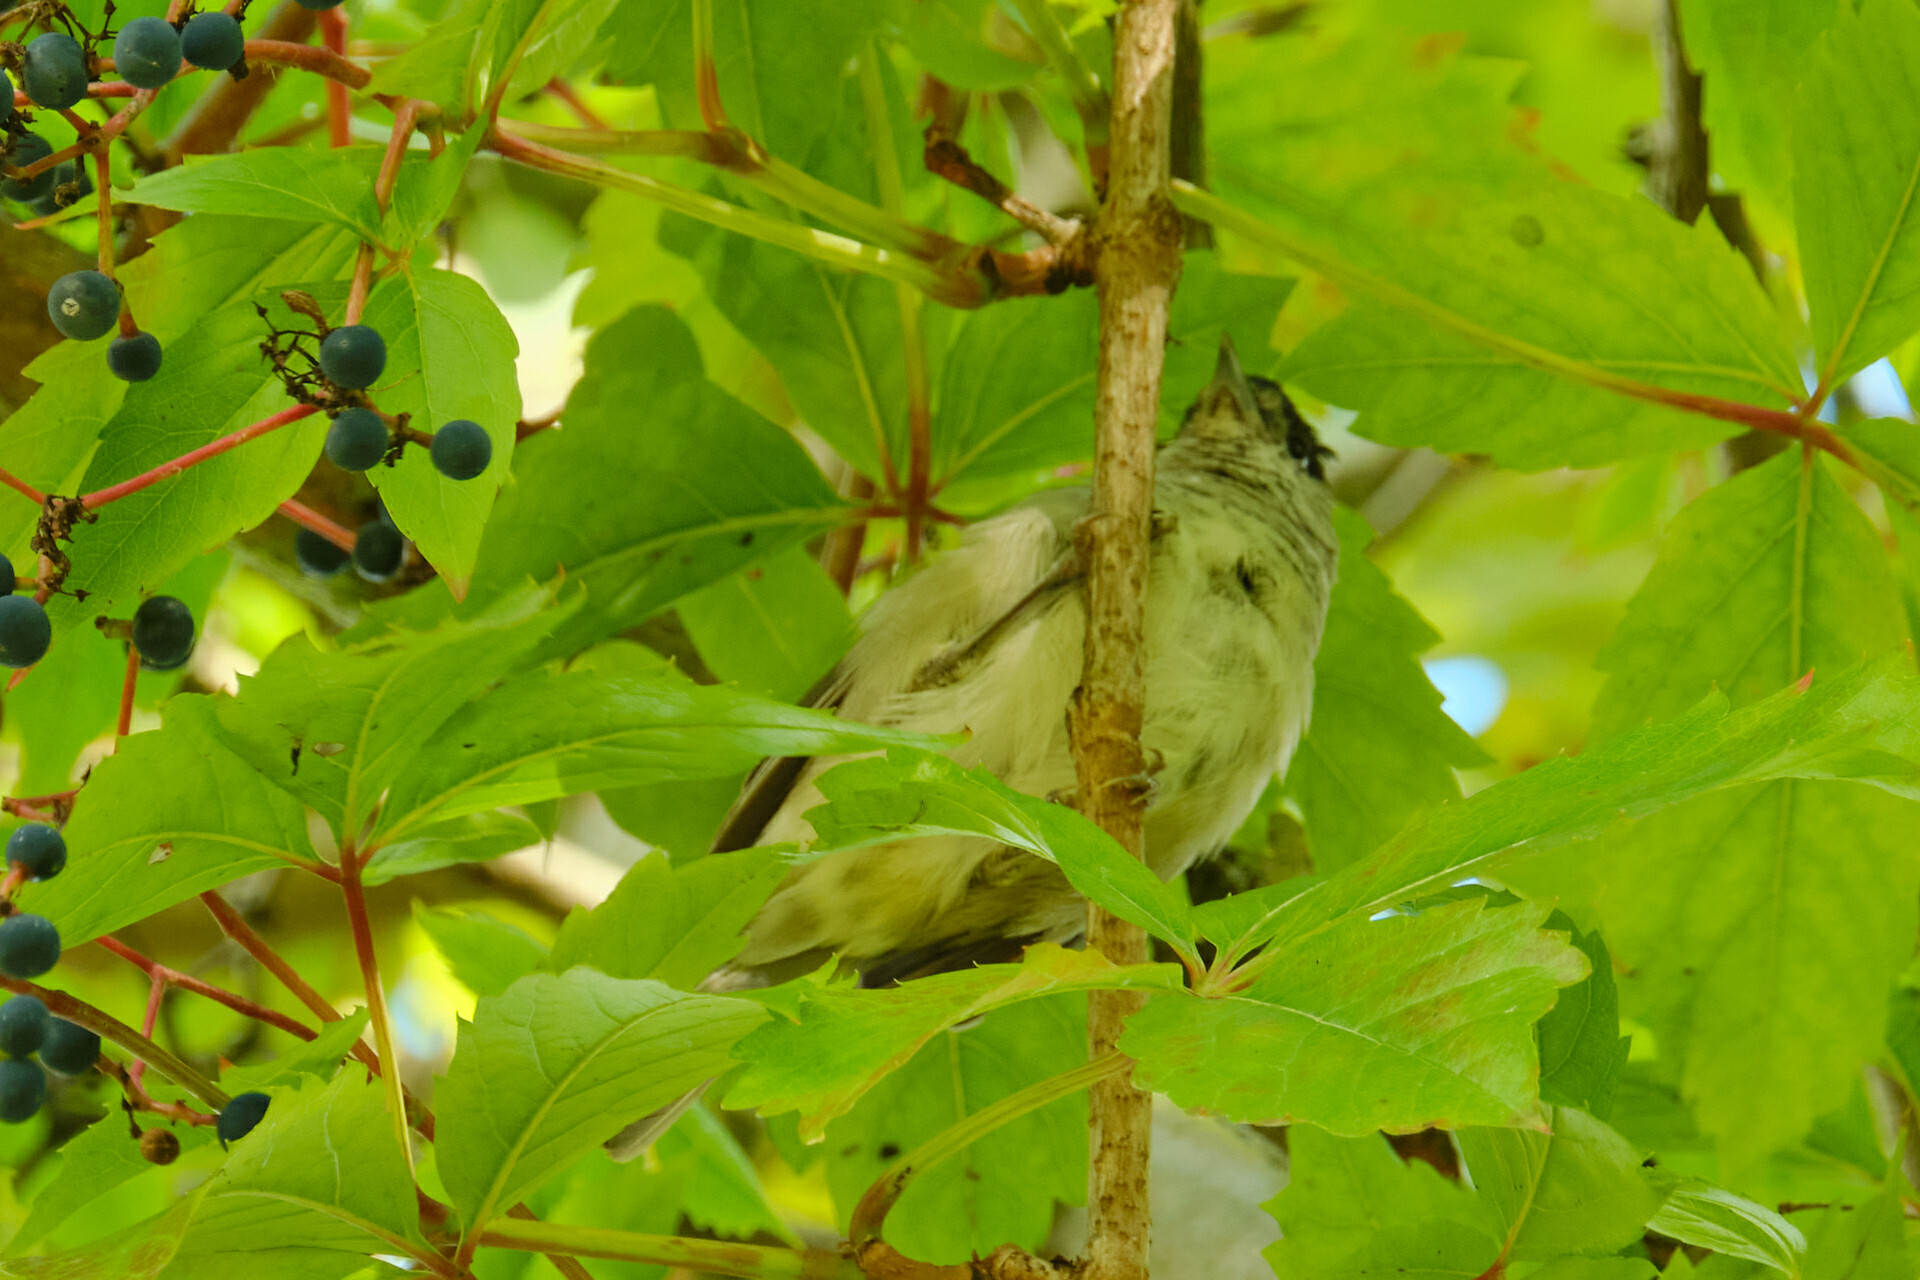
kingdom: Animalia
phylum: Chordata
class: Aves
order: Passeriformes
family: Sylviidae
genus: Sylvia
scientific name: Sylvia atricapilla
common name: Eurasian blackcap
